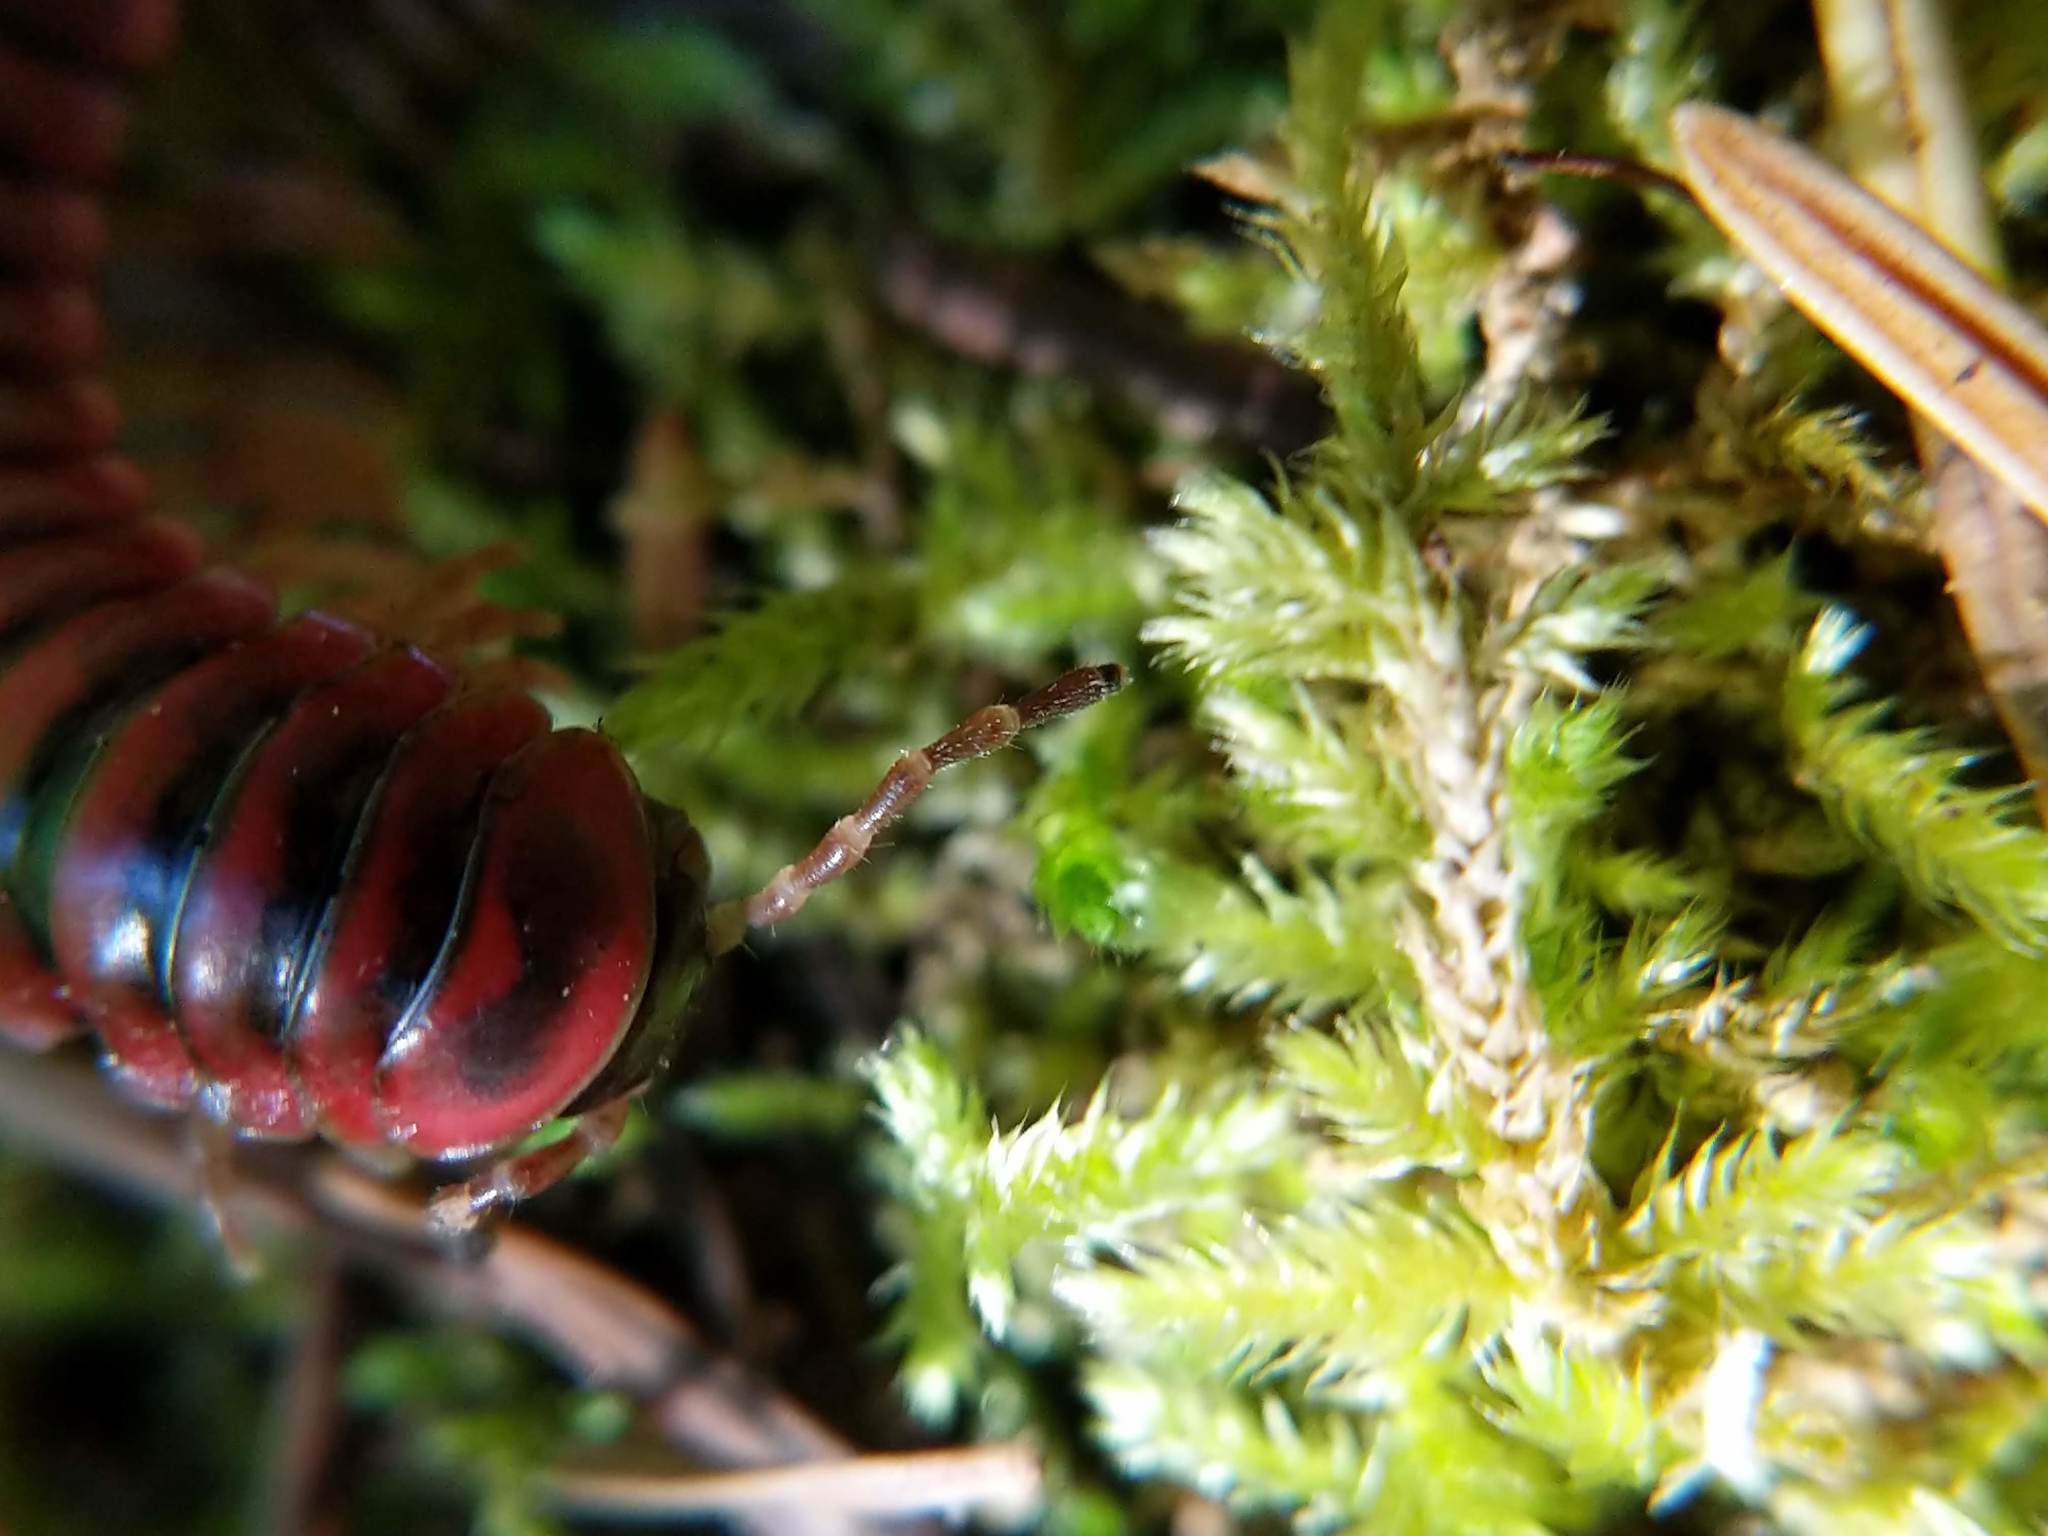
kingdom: Animalia
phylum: Arthropoda
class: Diplopoda
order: Polydesmida
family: Xystodesmidae
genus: Selenocheir
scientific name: Selenocheir sinuata
